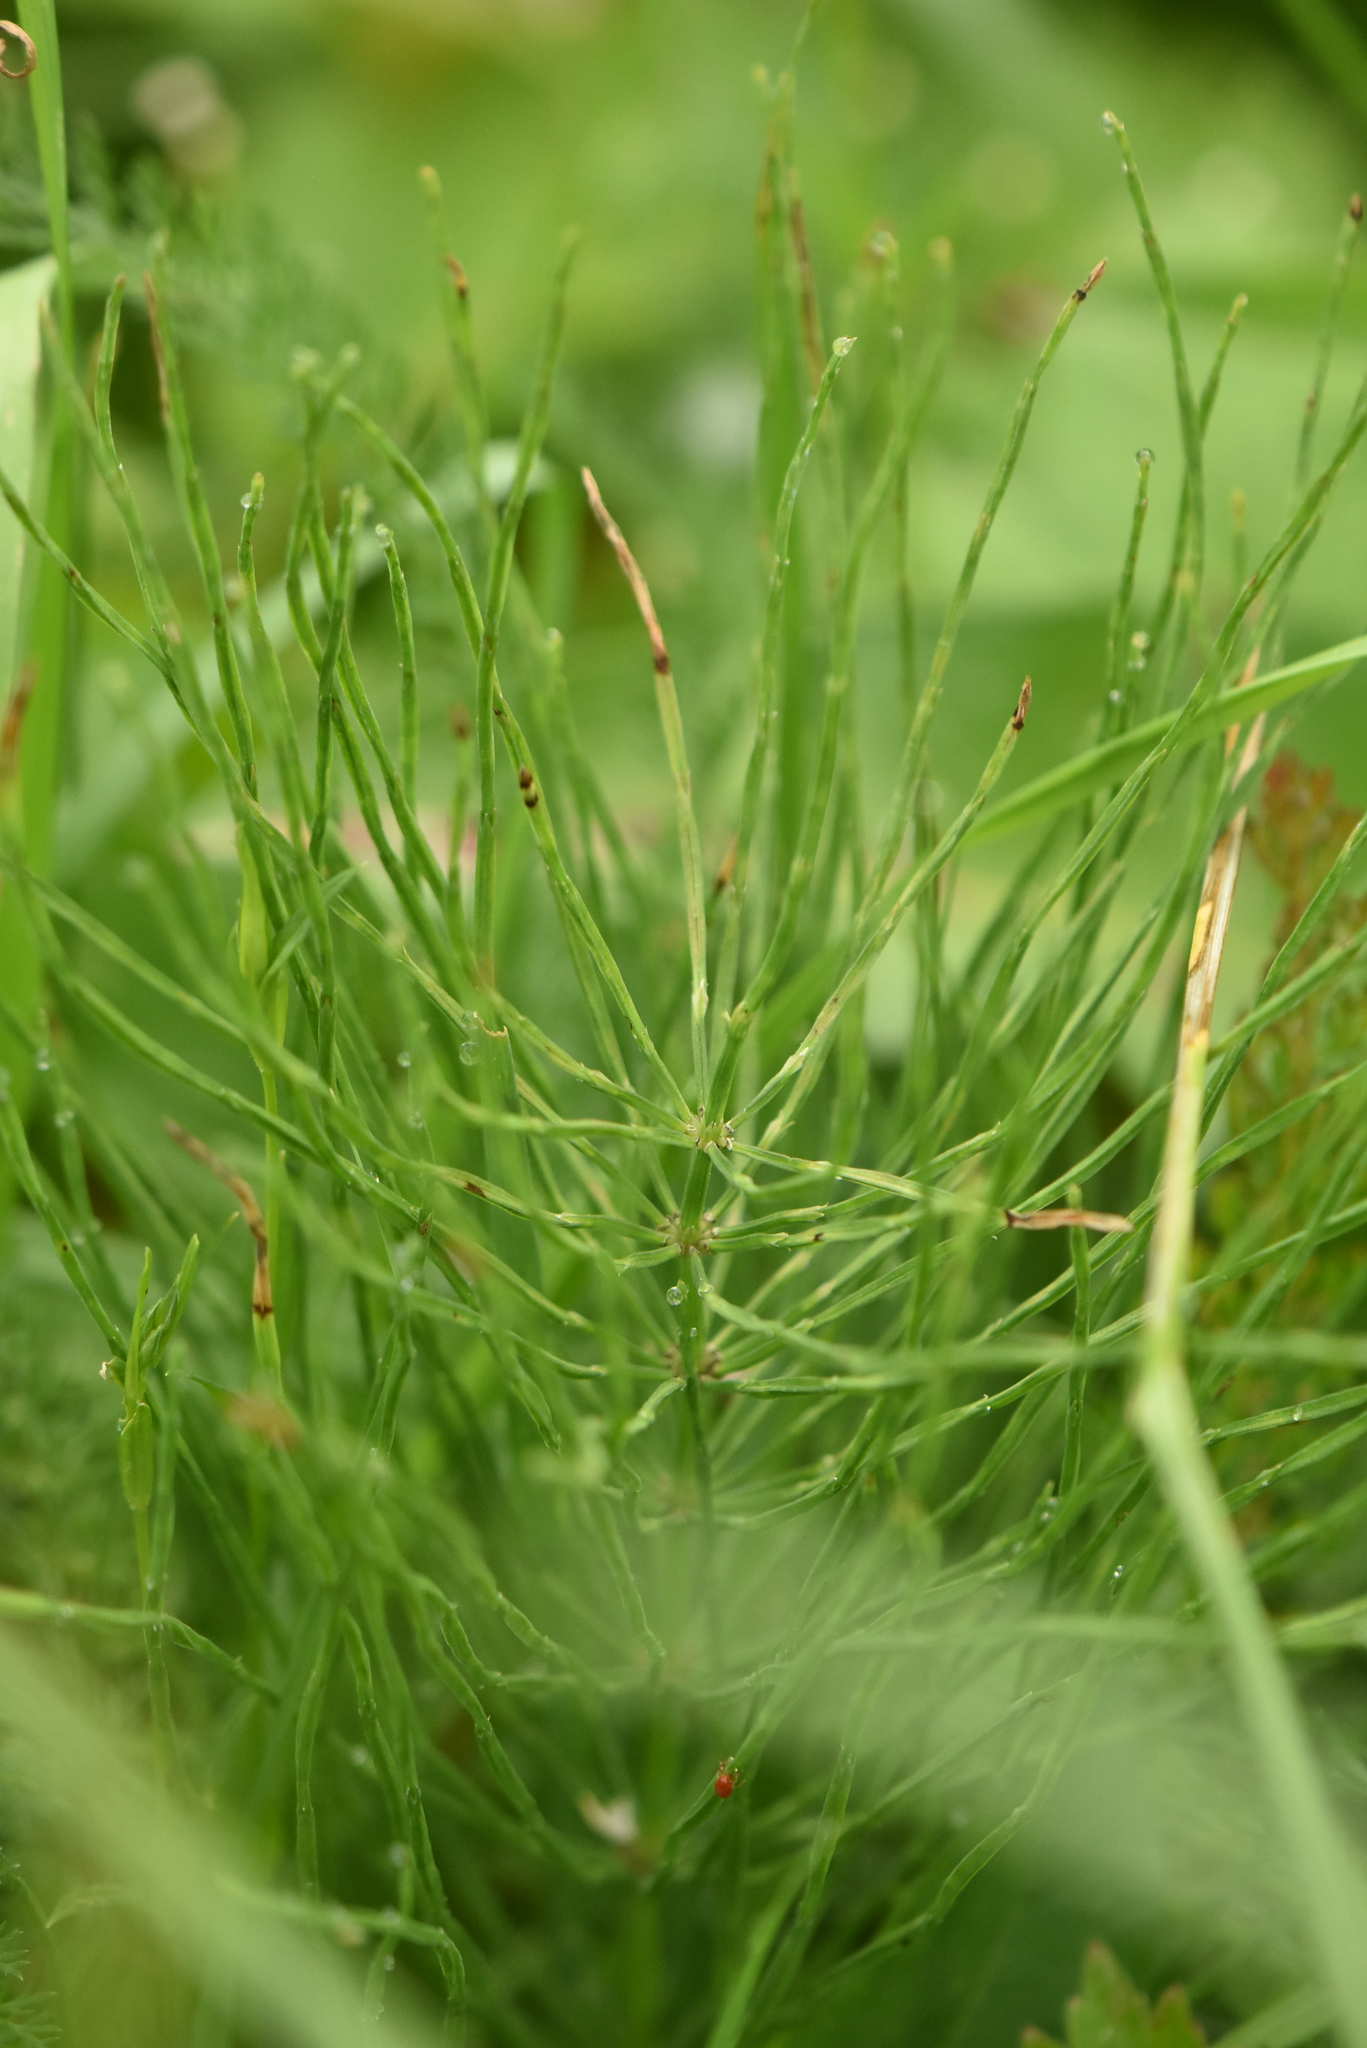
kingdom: Plantae
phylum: Tracheophyta
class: Polypodiopsida
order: Equisetales
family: Equisetaceae
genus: Equisetum
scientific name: Equisetum arvense
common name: Field horsetail
